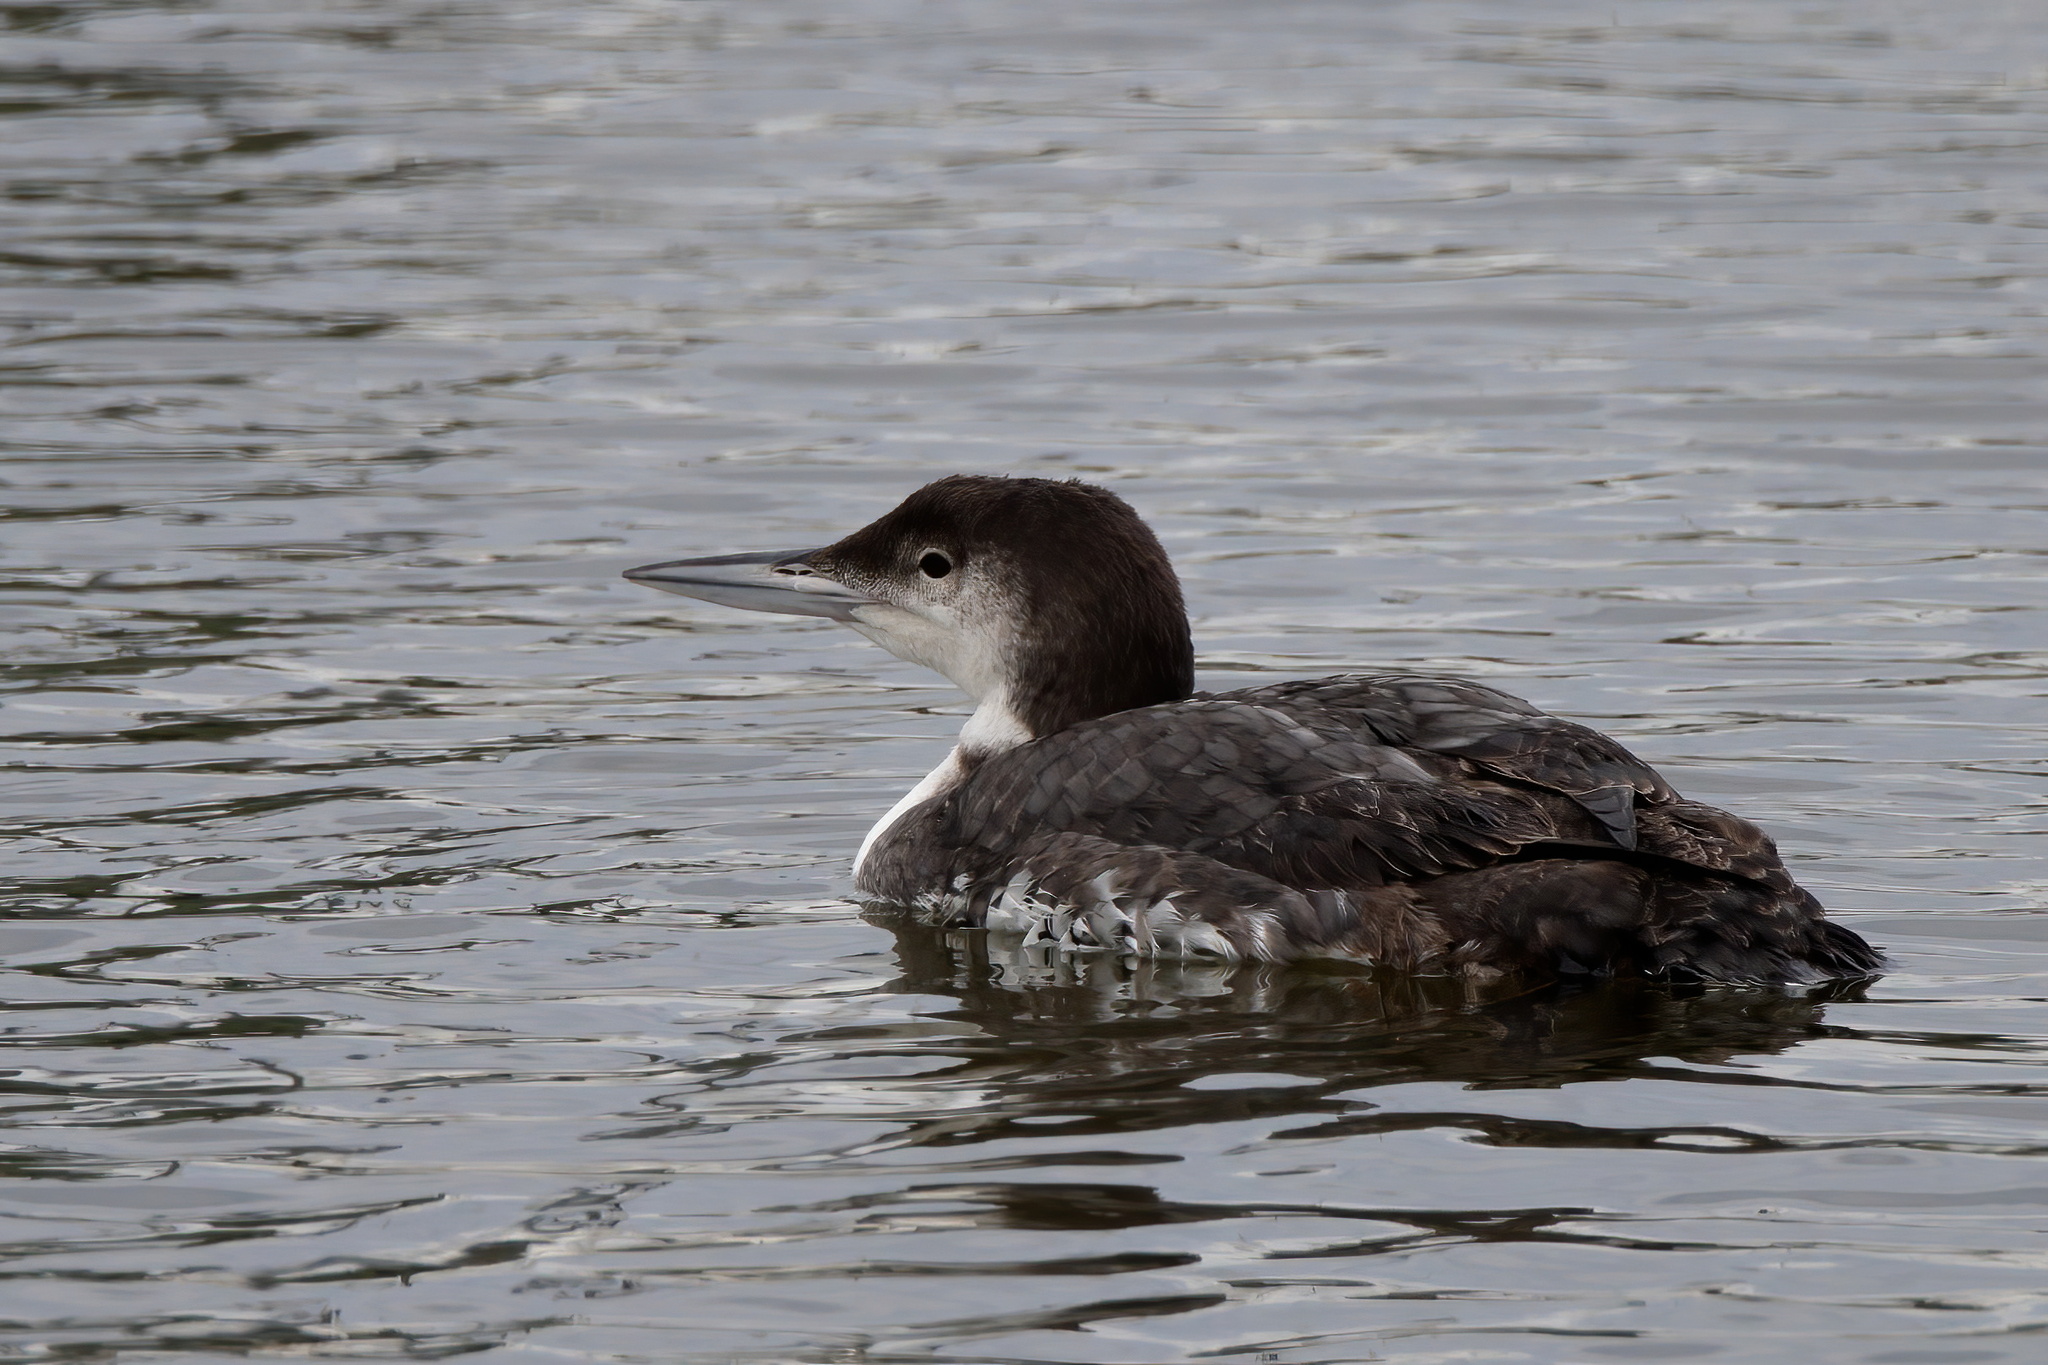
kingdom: Animalia
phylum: Chordata
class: Aves
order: Gaviiformes
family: Gaviidae
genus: Gavia
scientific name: Gavia immer
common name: Common loon
